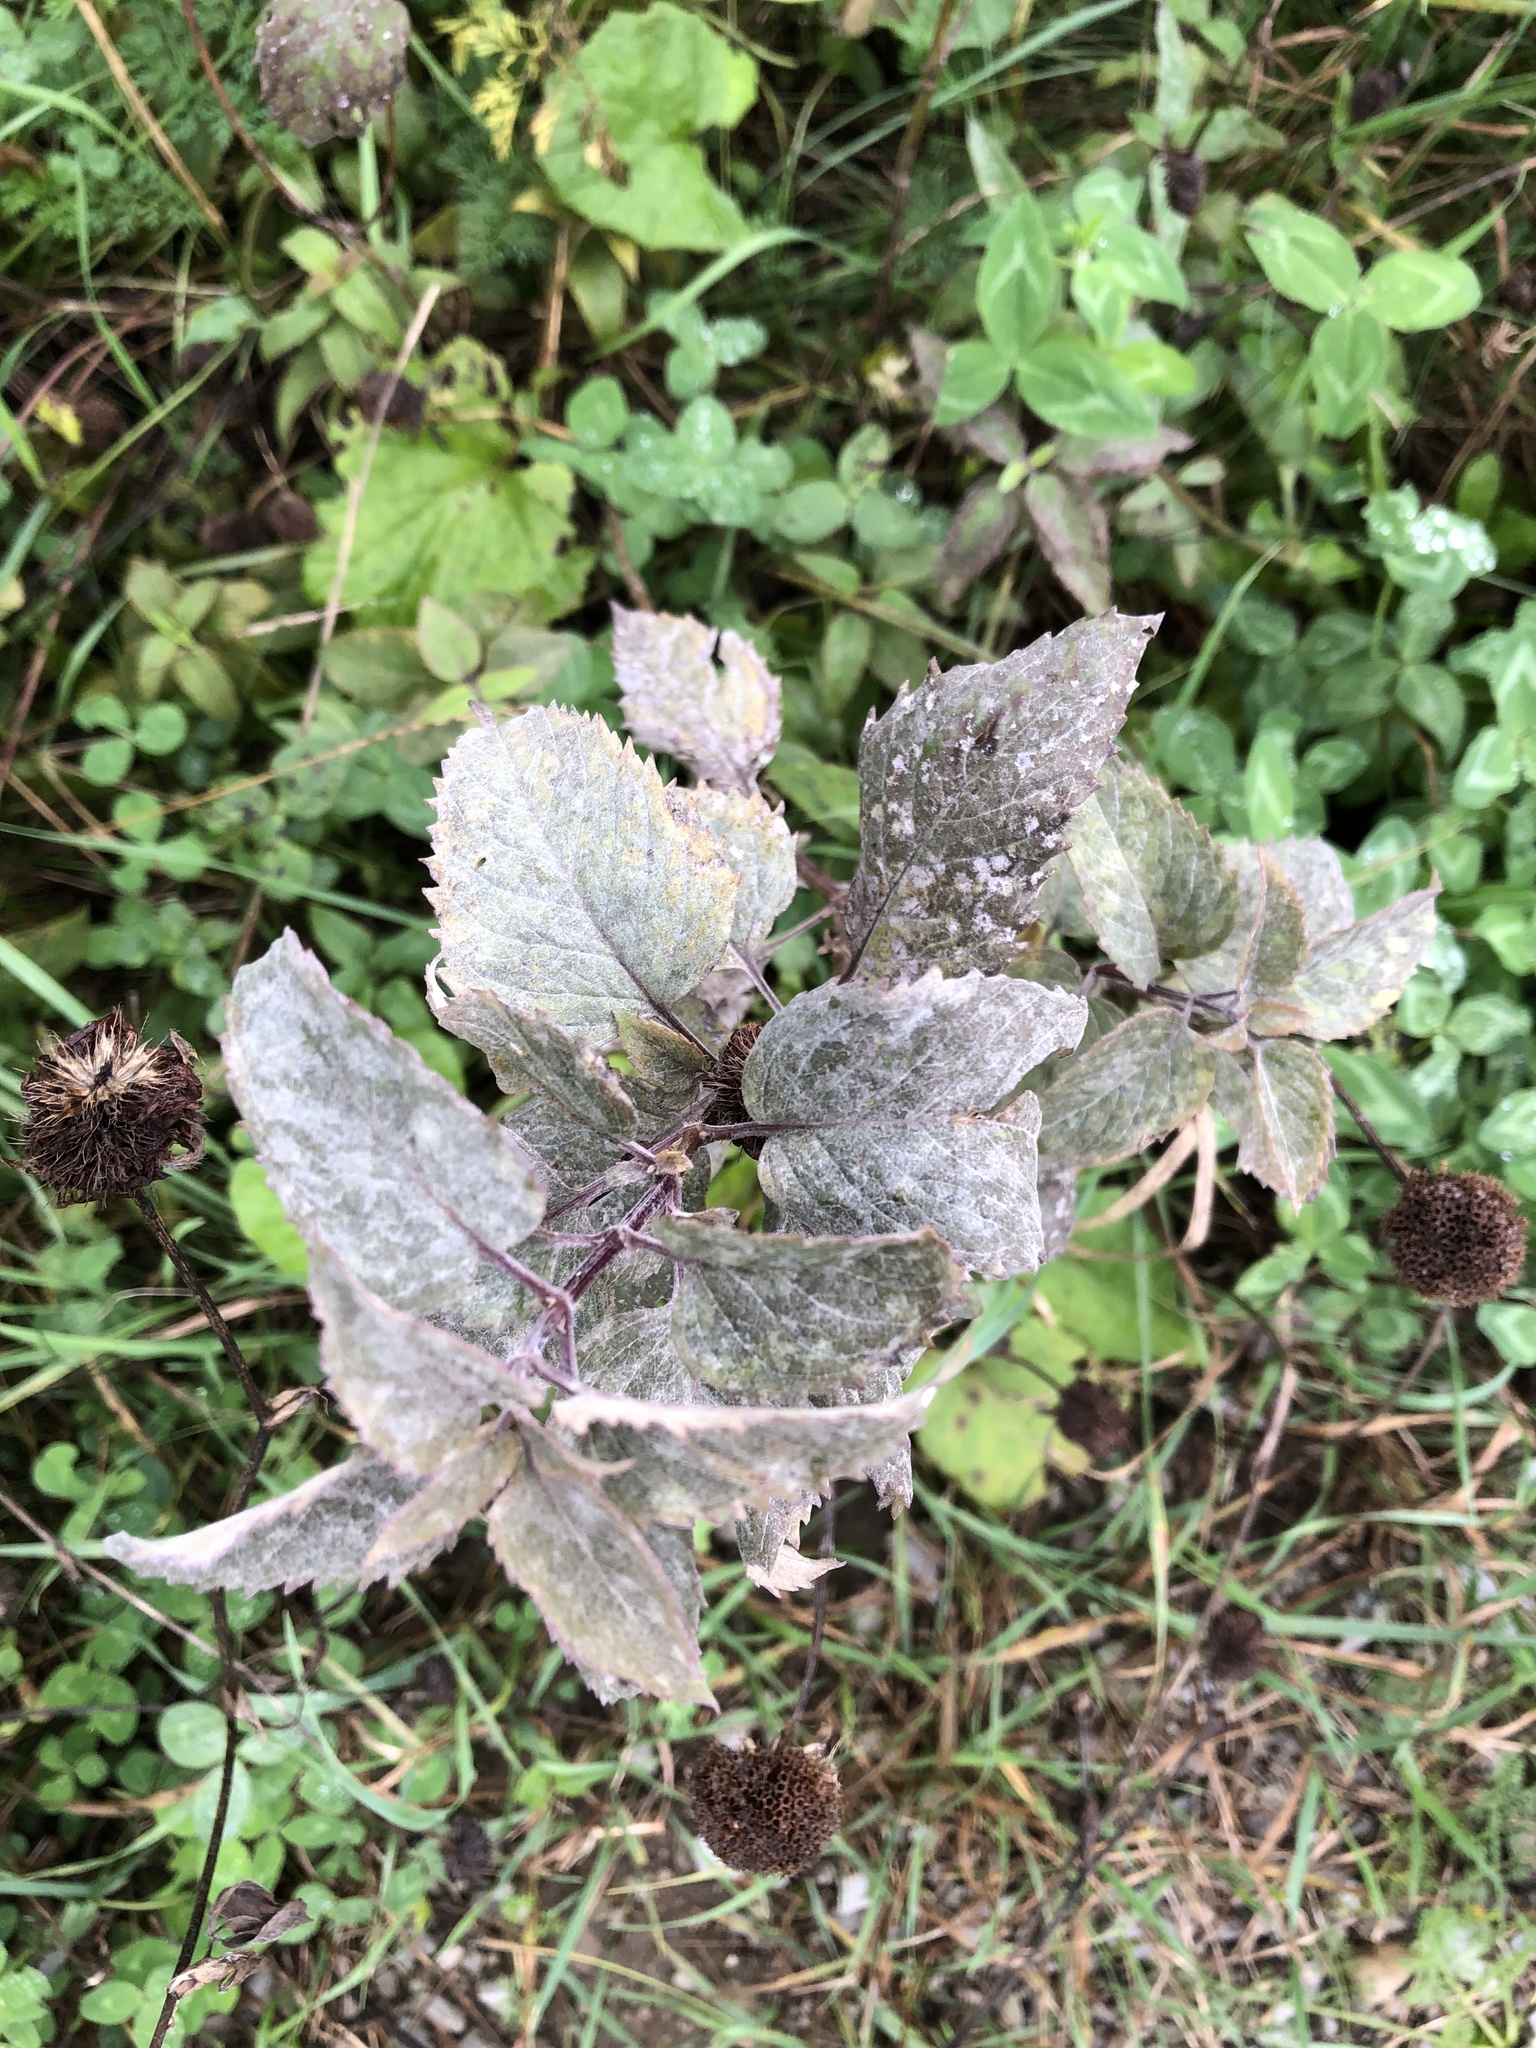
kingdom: Plantae
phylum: Tracheophyta
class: Magnoliopsida
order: Lamiales
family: Lamiaceae
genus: Monarda
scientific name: Monarda fistulosa
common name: Purple beebalm
